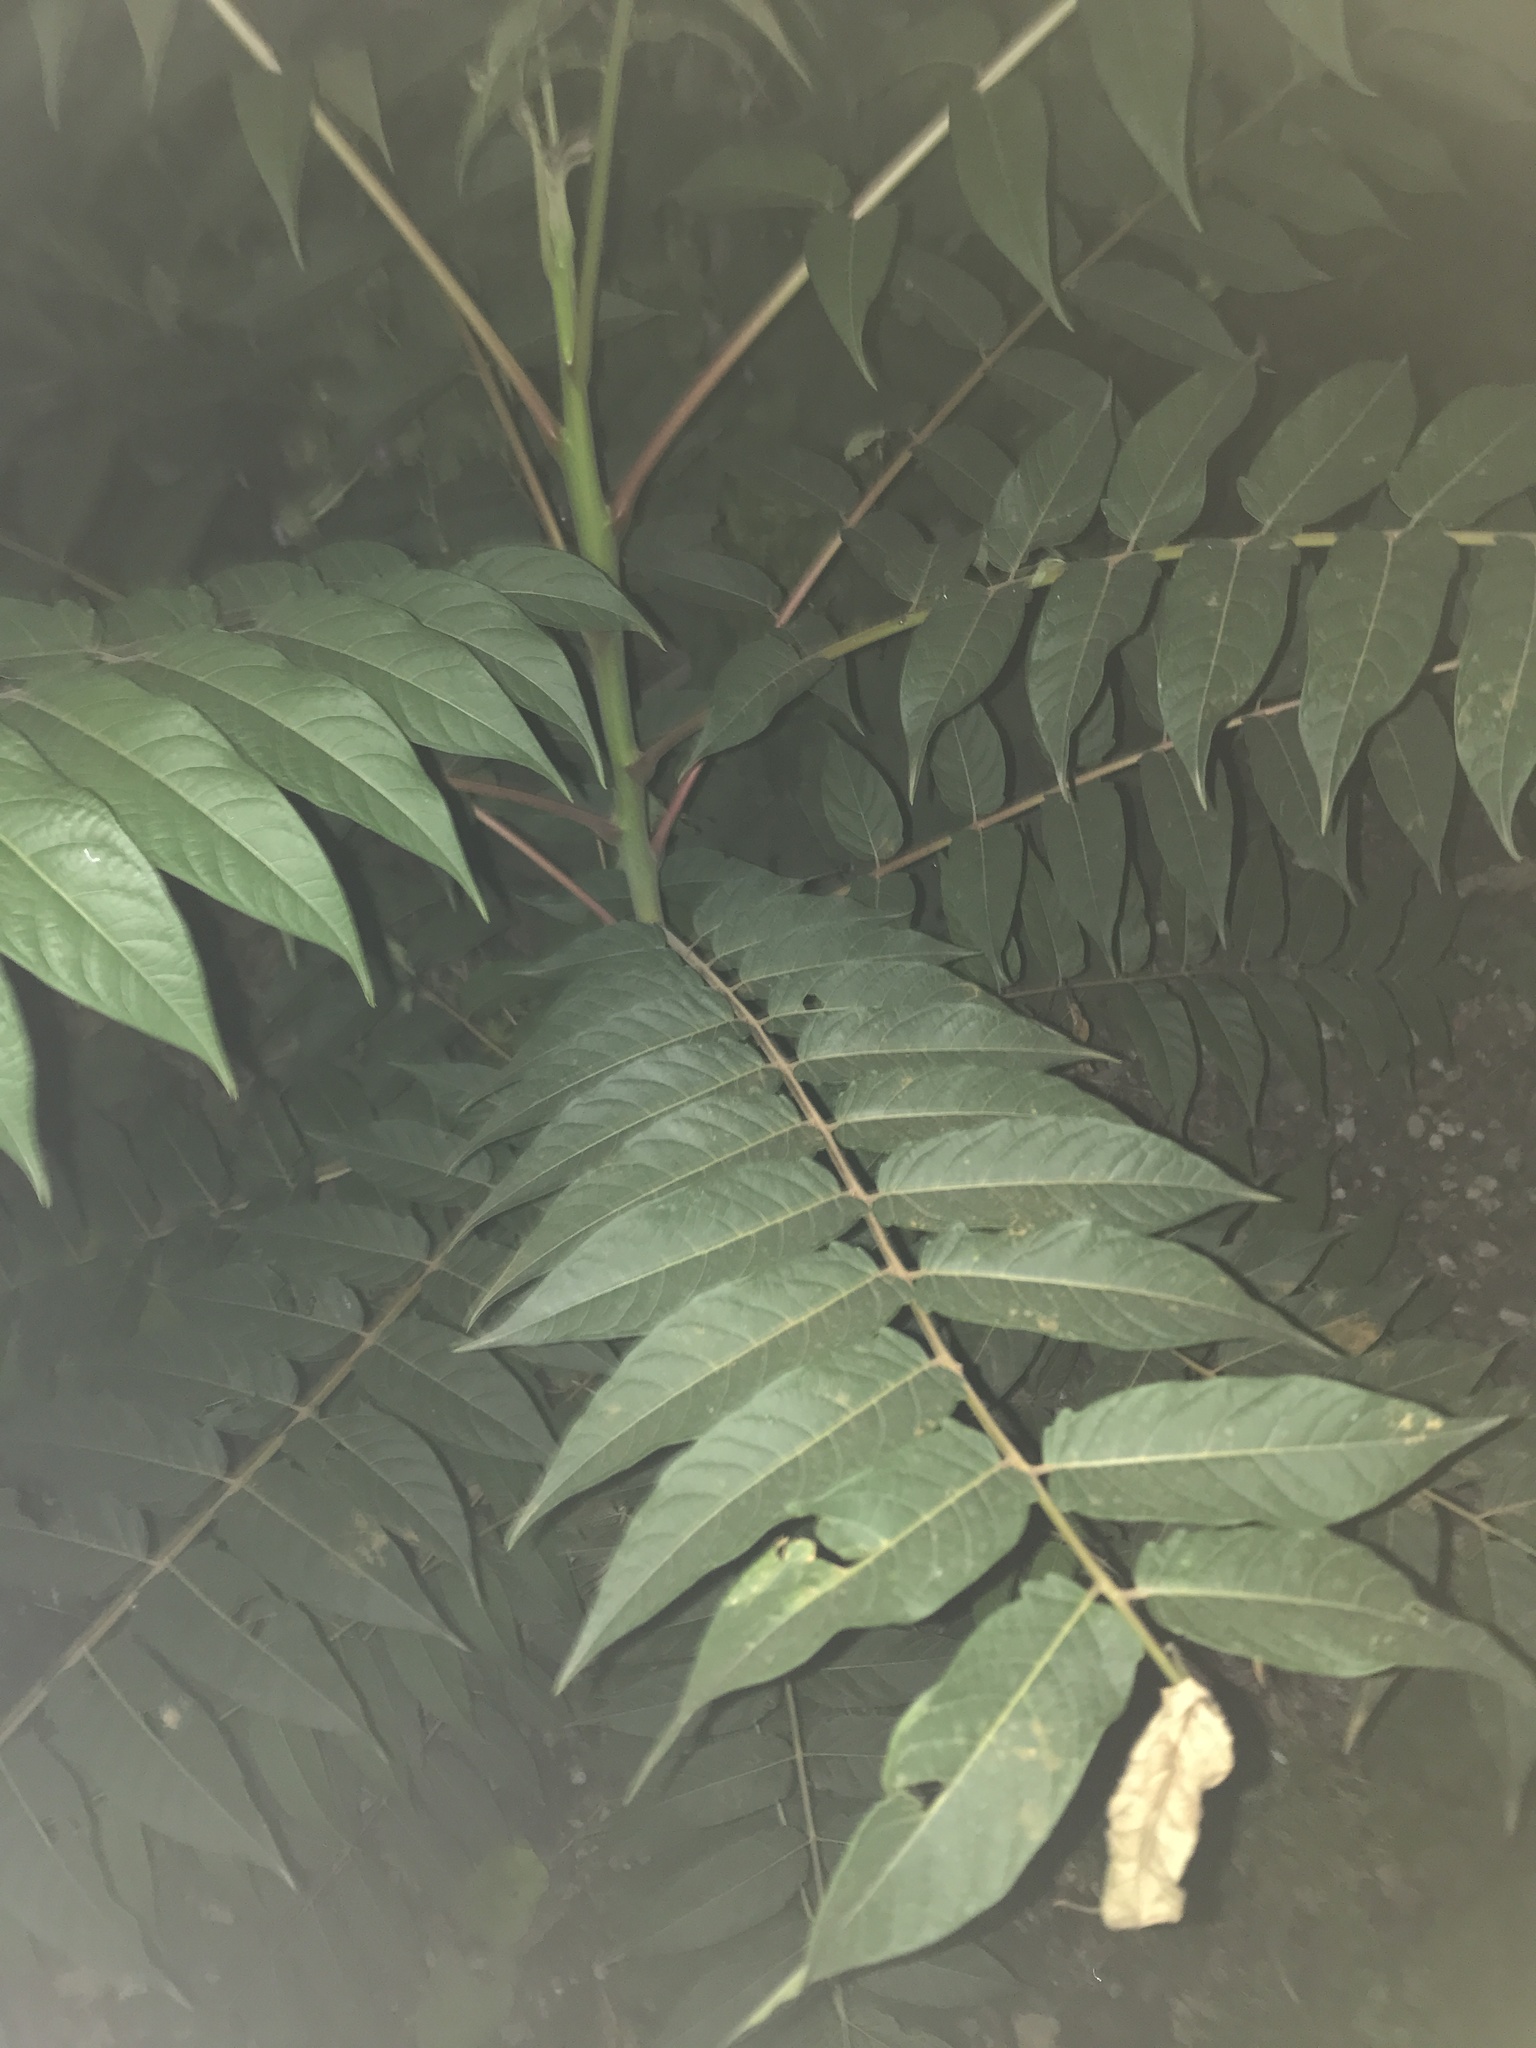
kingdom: Plantae
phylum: Tracheophyta
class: Magnoliopsida
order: Sapindales
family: Simaroubaceae
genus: Ailanthus
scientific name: Ailanthus altissima
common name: Tree-of-heaven
